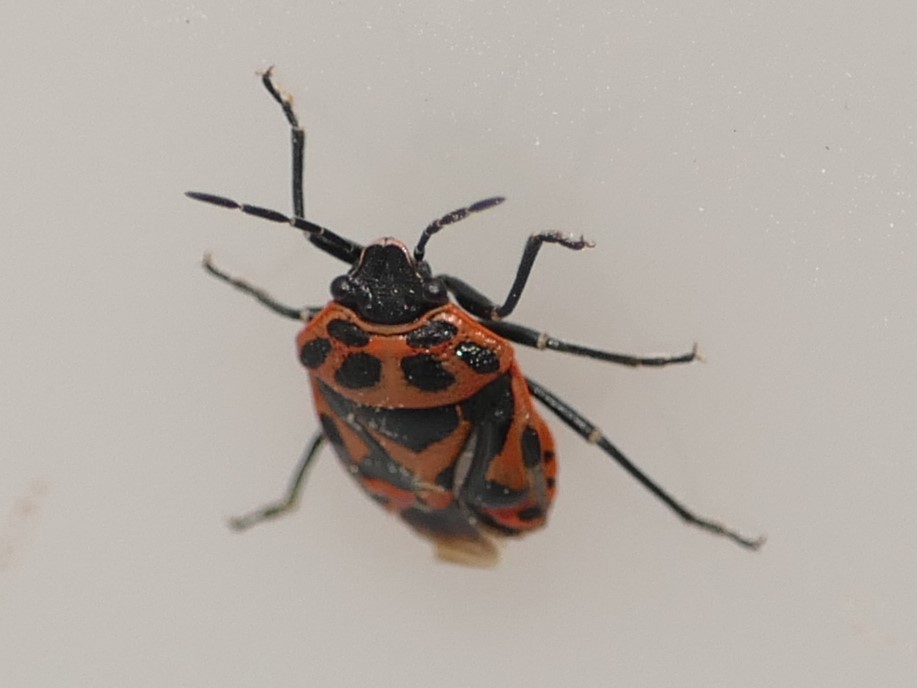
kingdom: Animalia
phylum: Arthropoda
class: Insecta
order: Hemiptera
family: Pentatomidae
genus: Eurydema
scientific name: Eurydema ornata
